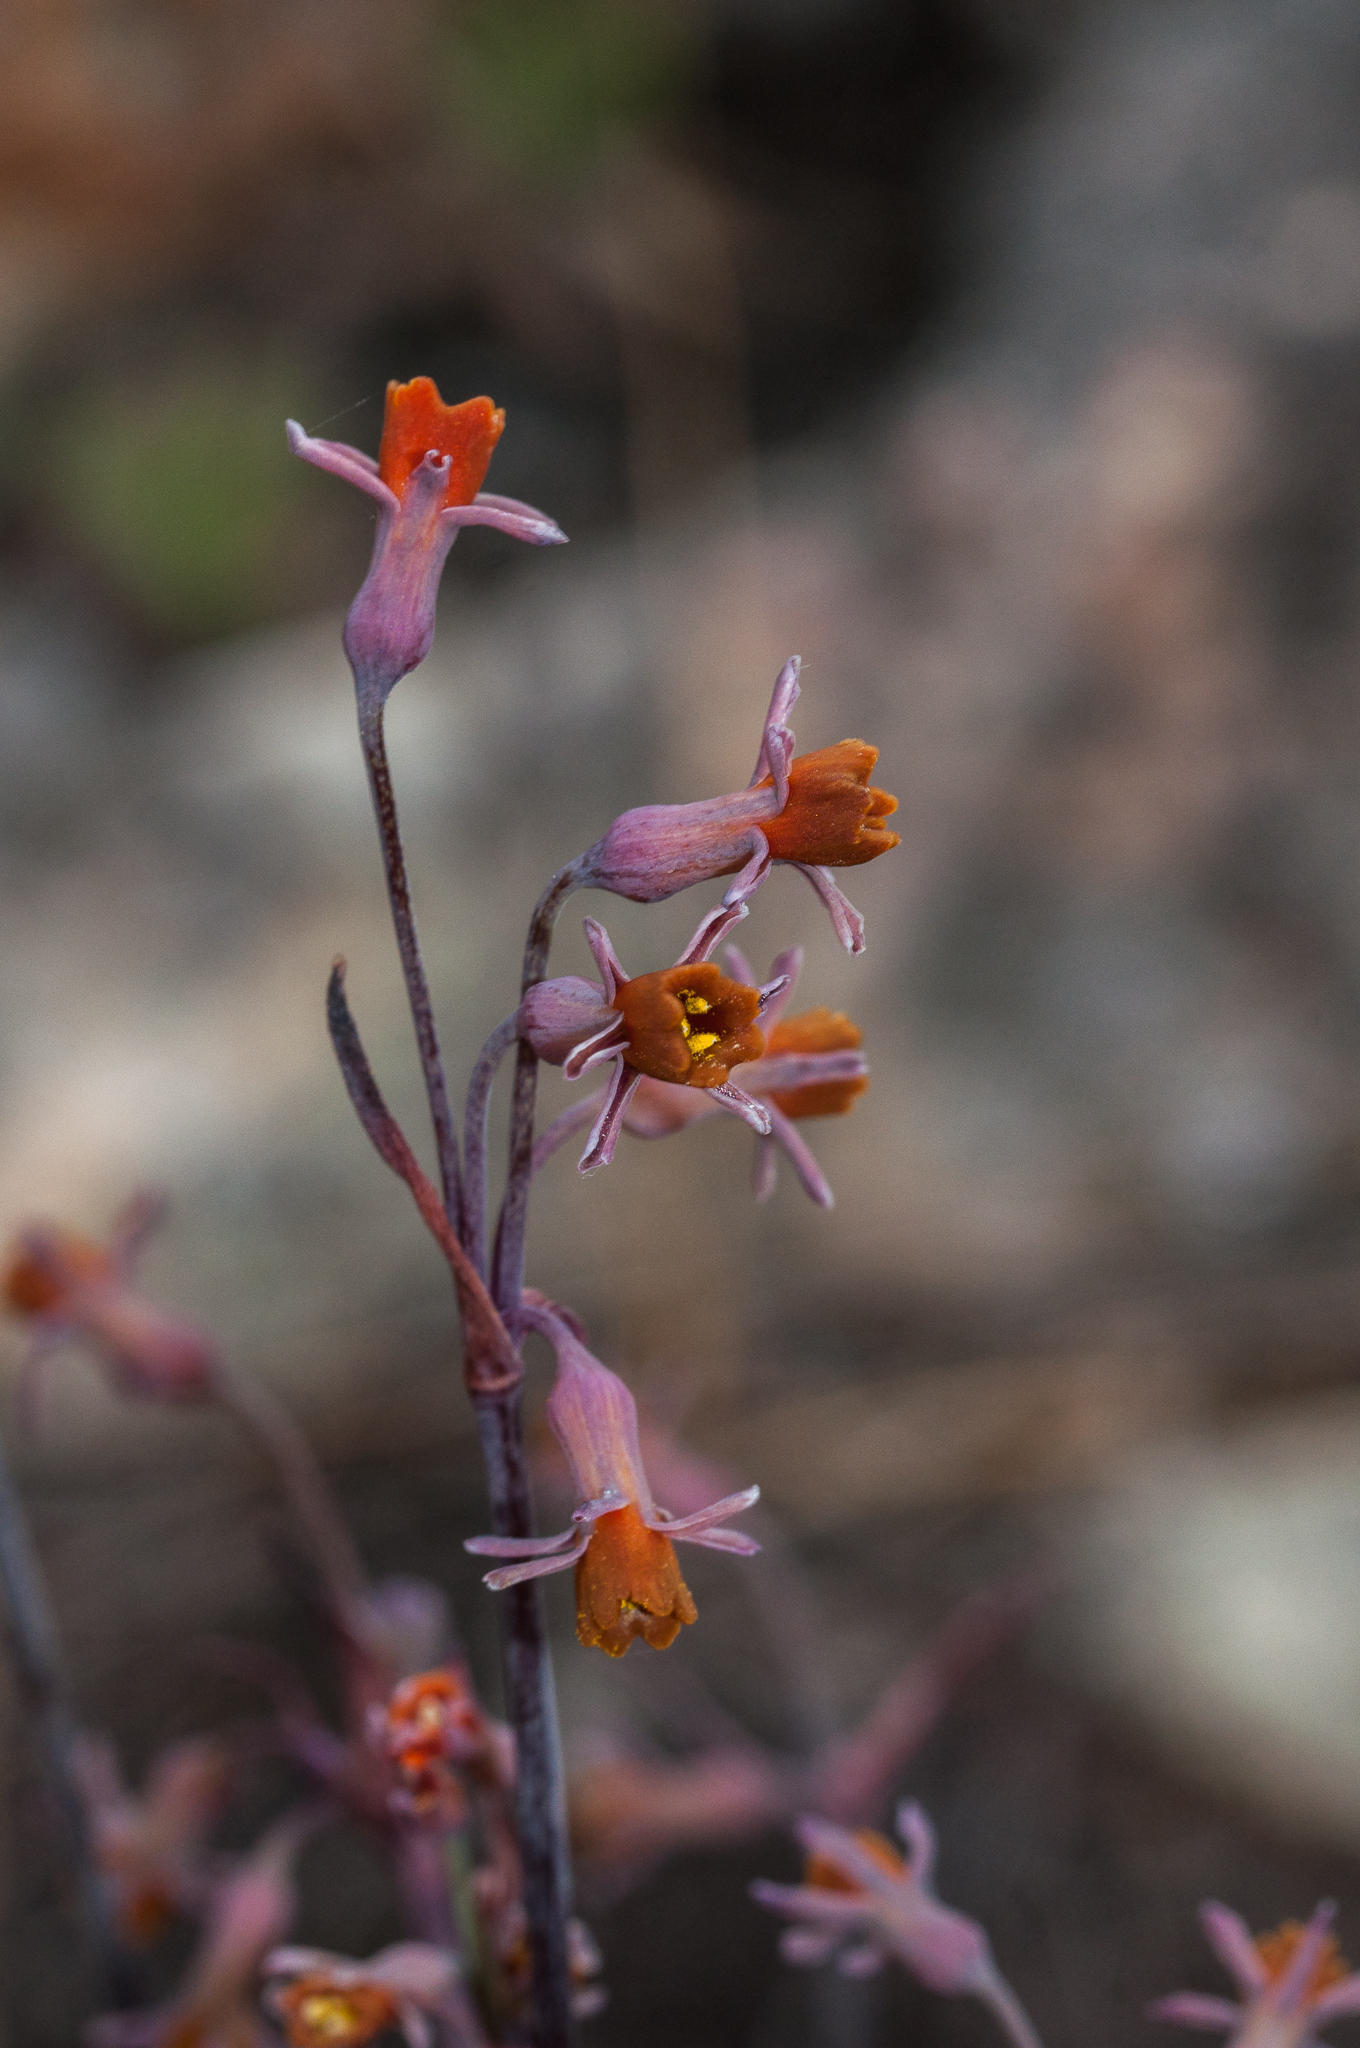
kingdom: Plantae
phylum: Tracheophyta
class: Liliopsida
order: Asparagales
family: Amaryllidaceae
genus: Tulbaghia
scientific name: Tulbaghia alliacea
